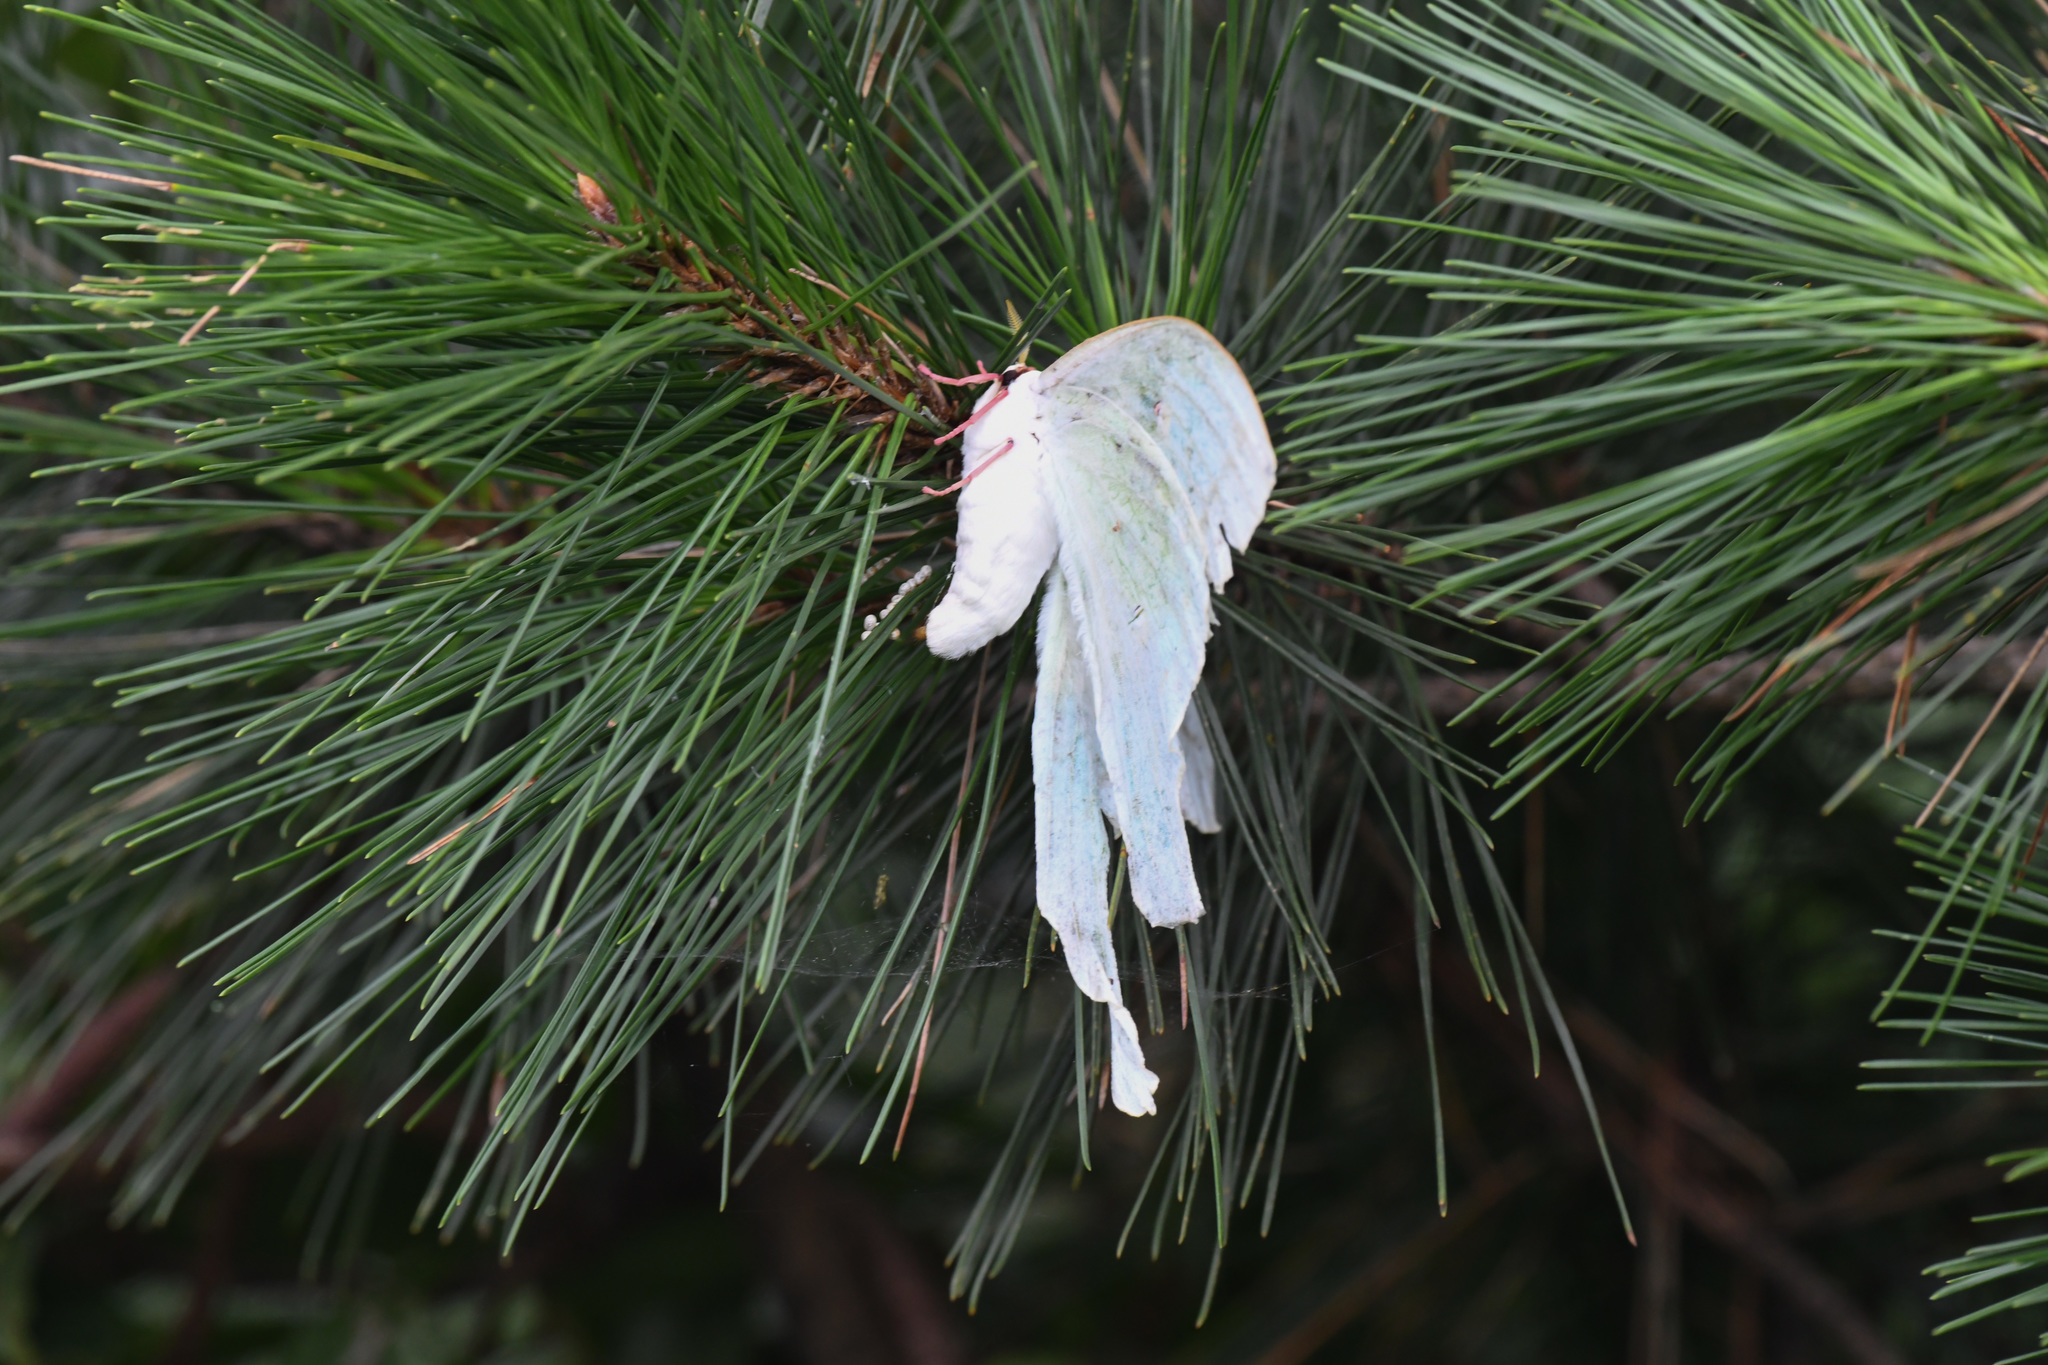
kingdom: Animalia
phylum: Arthropoda
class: Insecta
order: Lepidoptera
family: Saturniidae
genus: Actias
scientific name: Actias ningpoana
